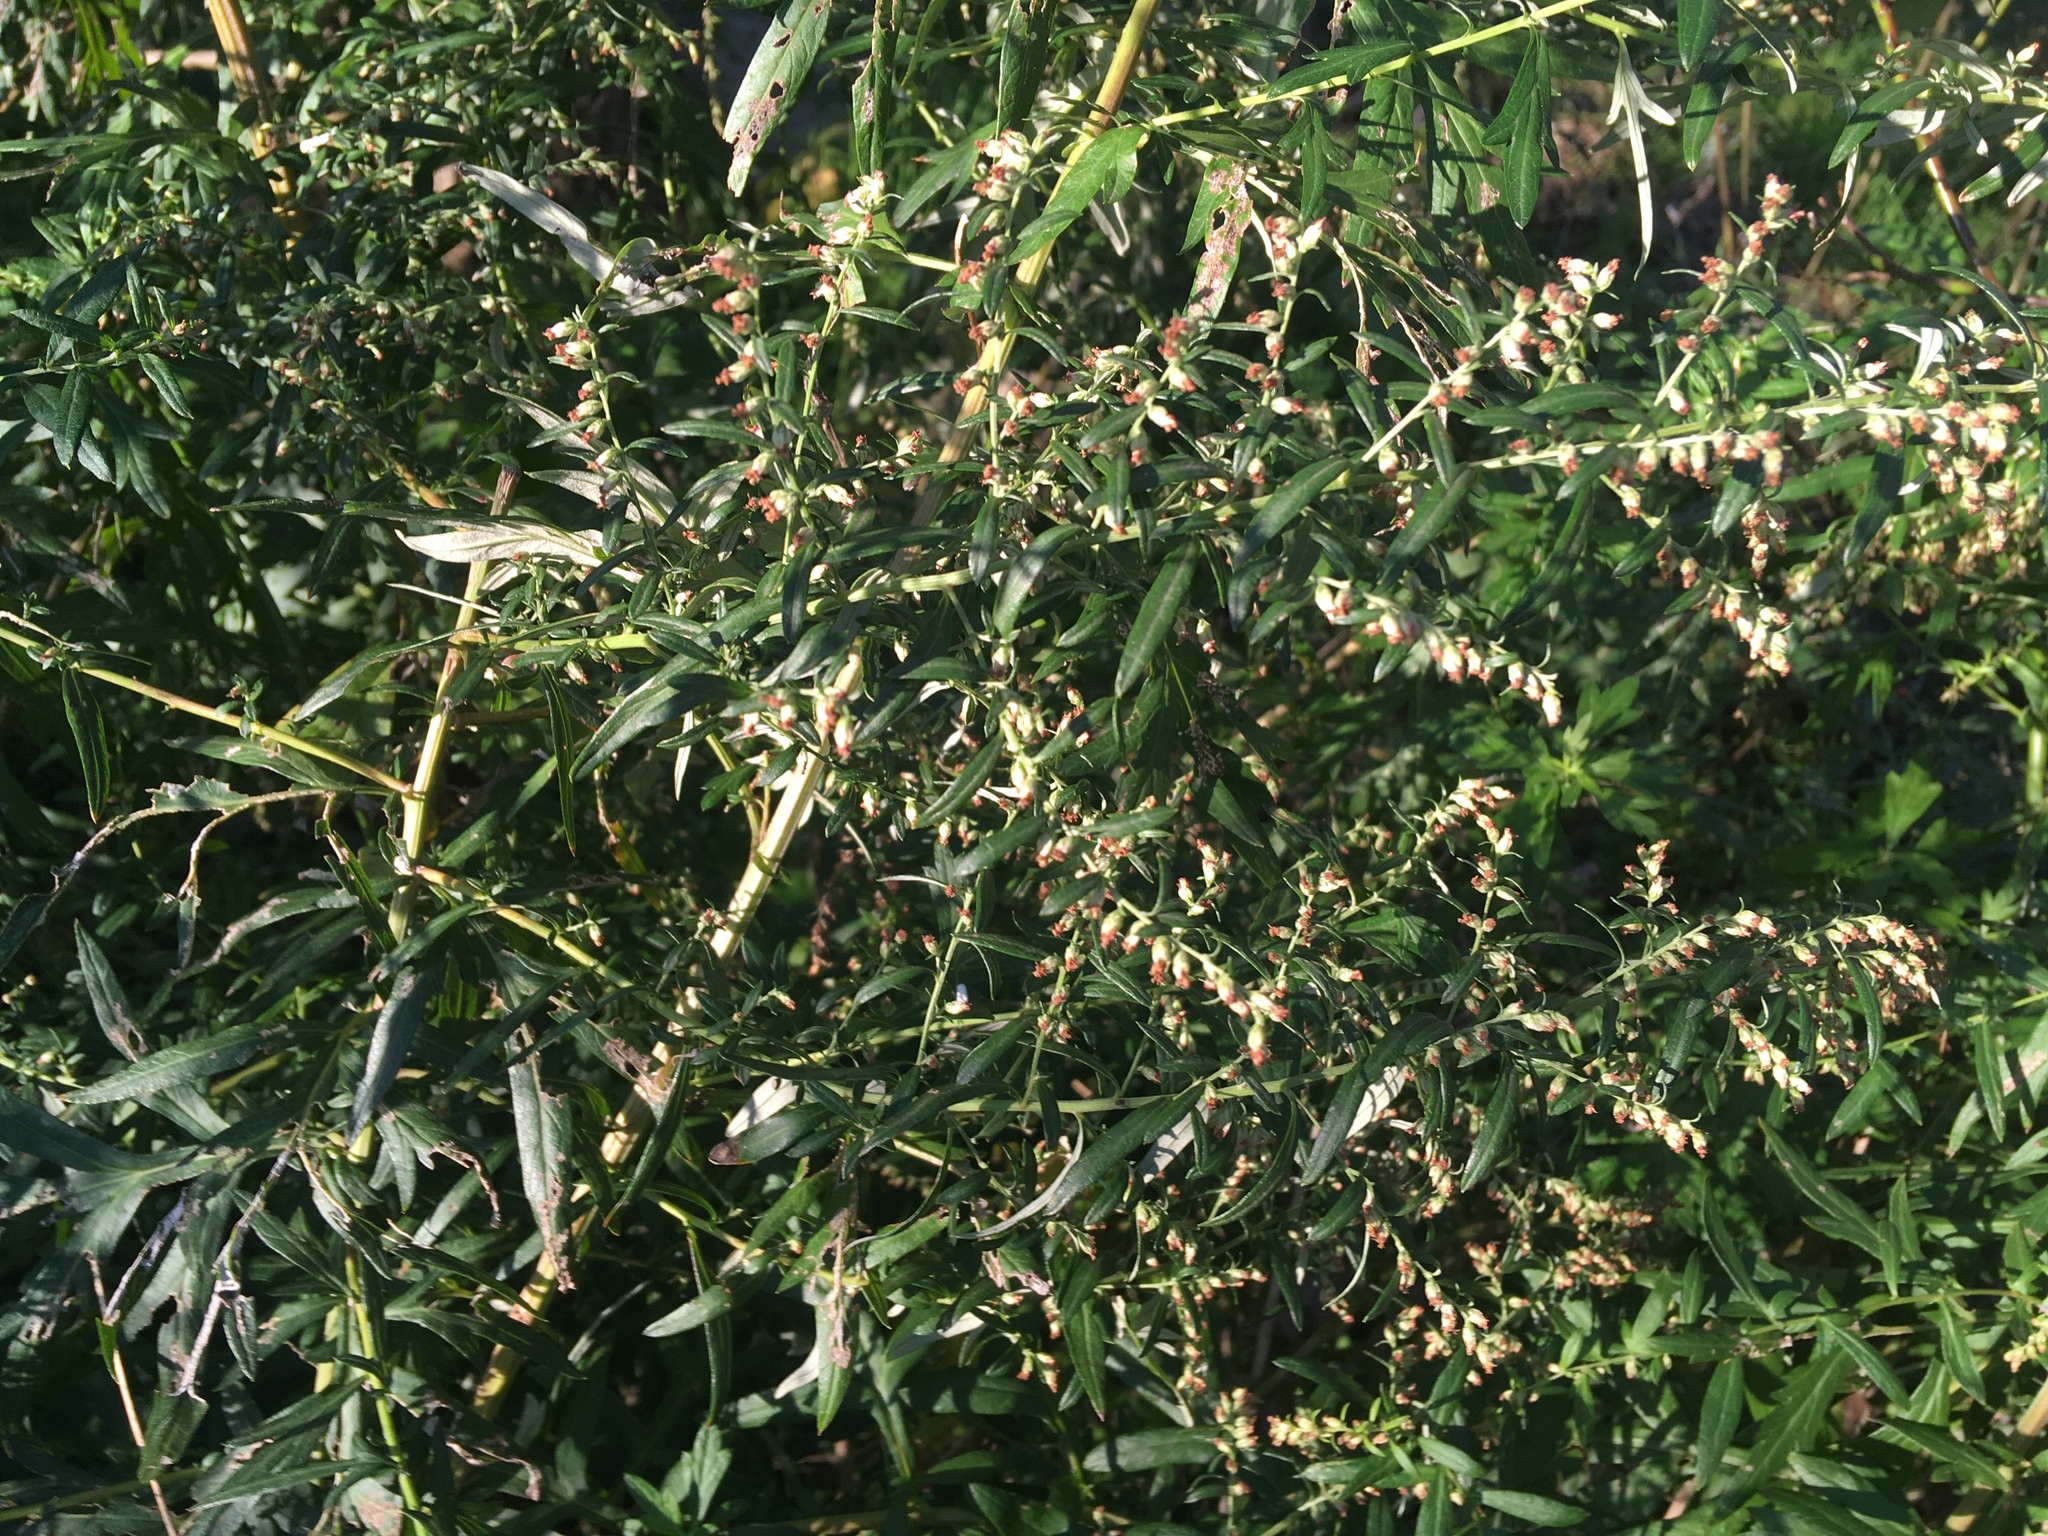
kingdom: Plantae
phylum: Tracheophyta
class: Magnoliopsida
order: Asterales
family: Asteraceae
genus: Artemisia
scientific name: Artemisia vulgaris
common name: Mugwort
